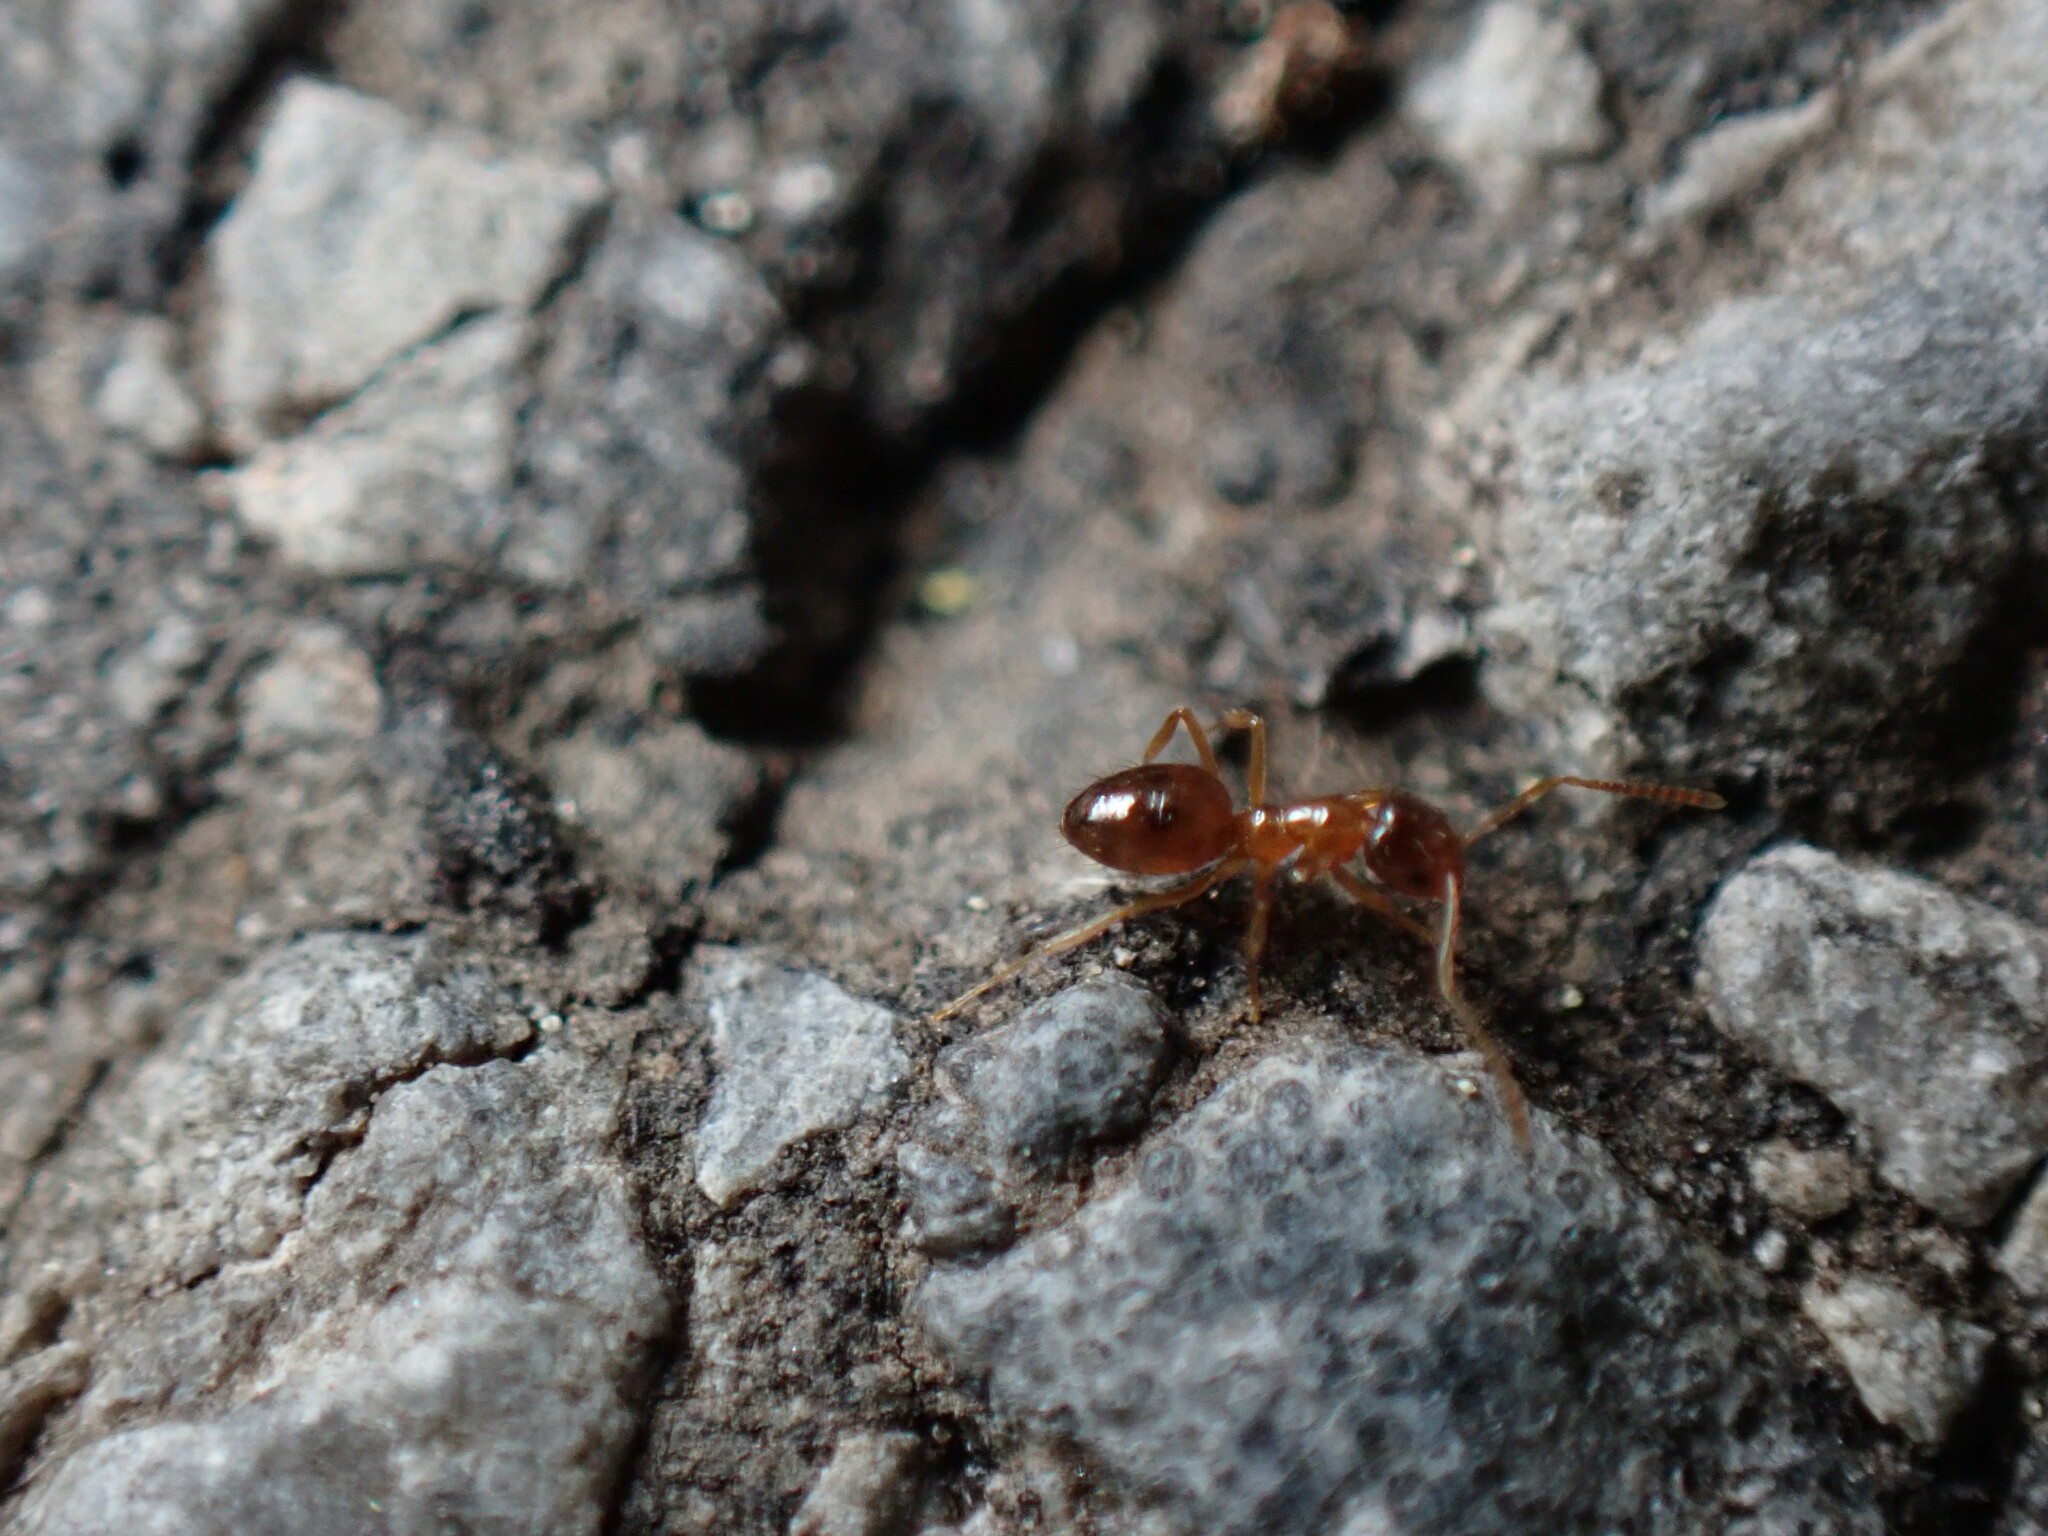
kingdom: Animalia
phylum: Arthropoda
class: Insecta
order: Hymenoptera
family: Formicidae
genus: Paratrechina
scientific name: Paratrechina flavipes
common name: Eastern asian formicine ant
